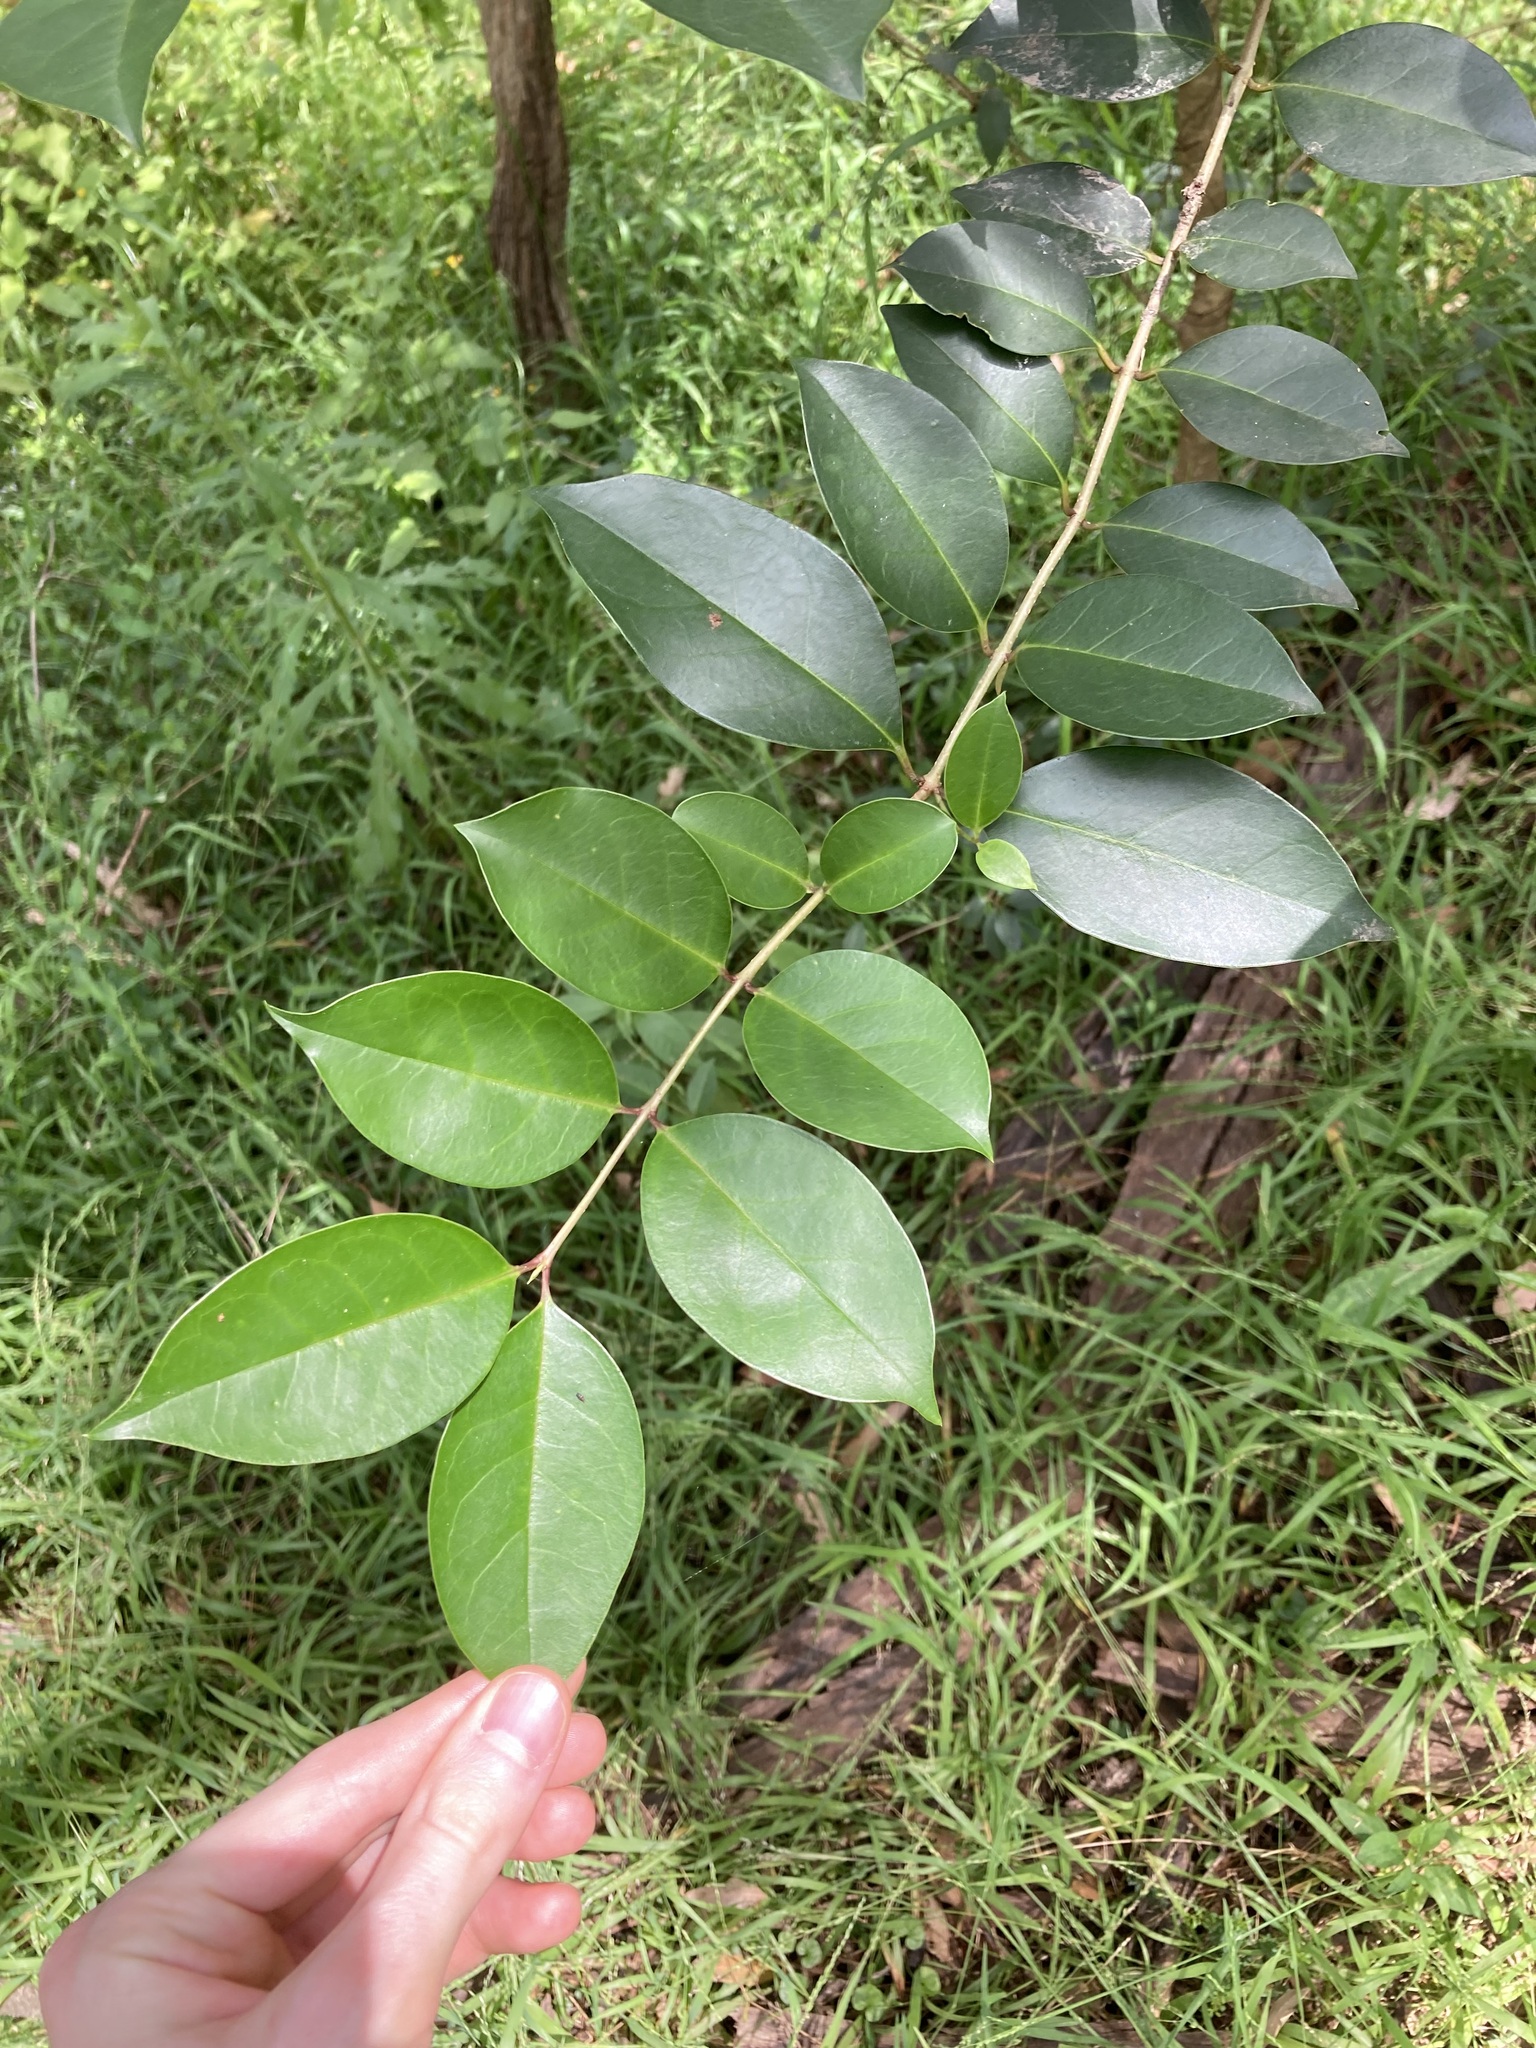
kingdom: Plantae
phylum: Tracheophyta
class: Magnoliopsida
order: Lamiales
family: Oleaceae
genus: Ligustrum
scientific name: Ligustrum lucidum
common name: Glossy privet
